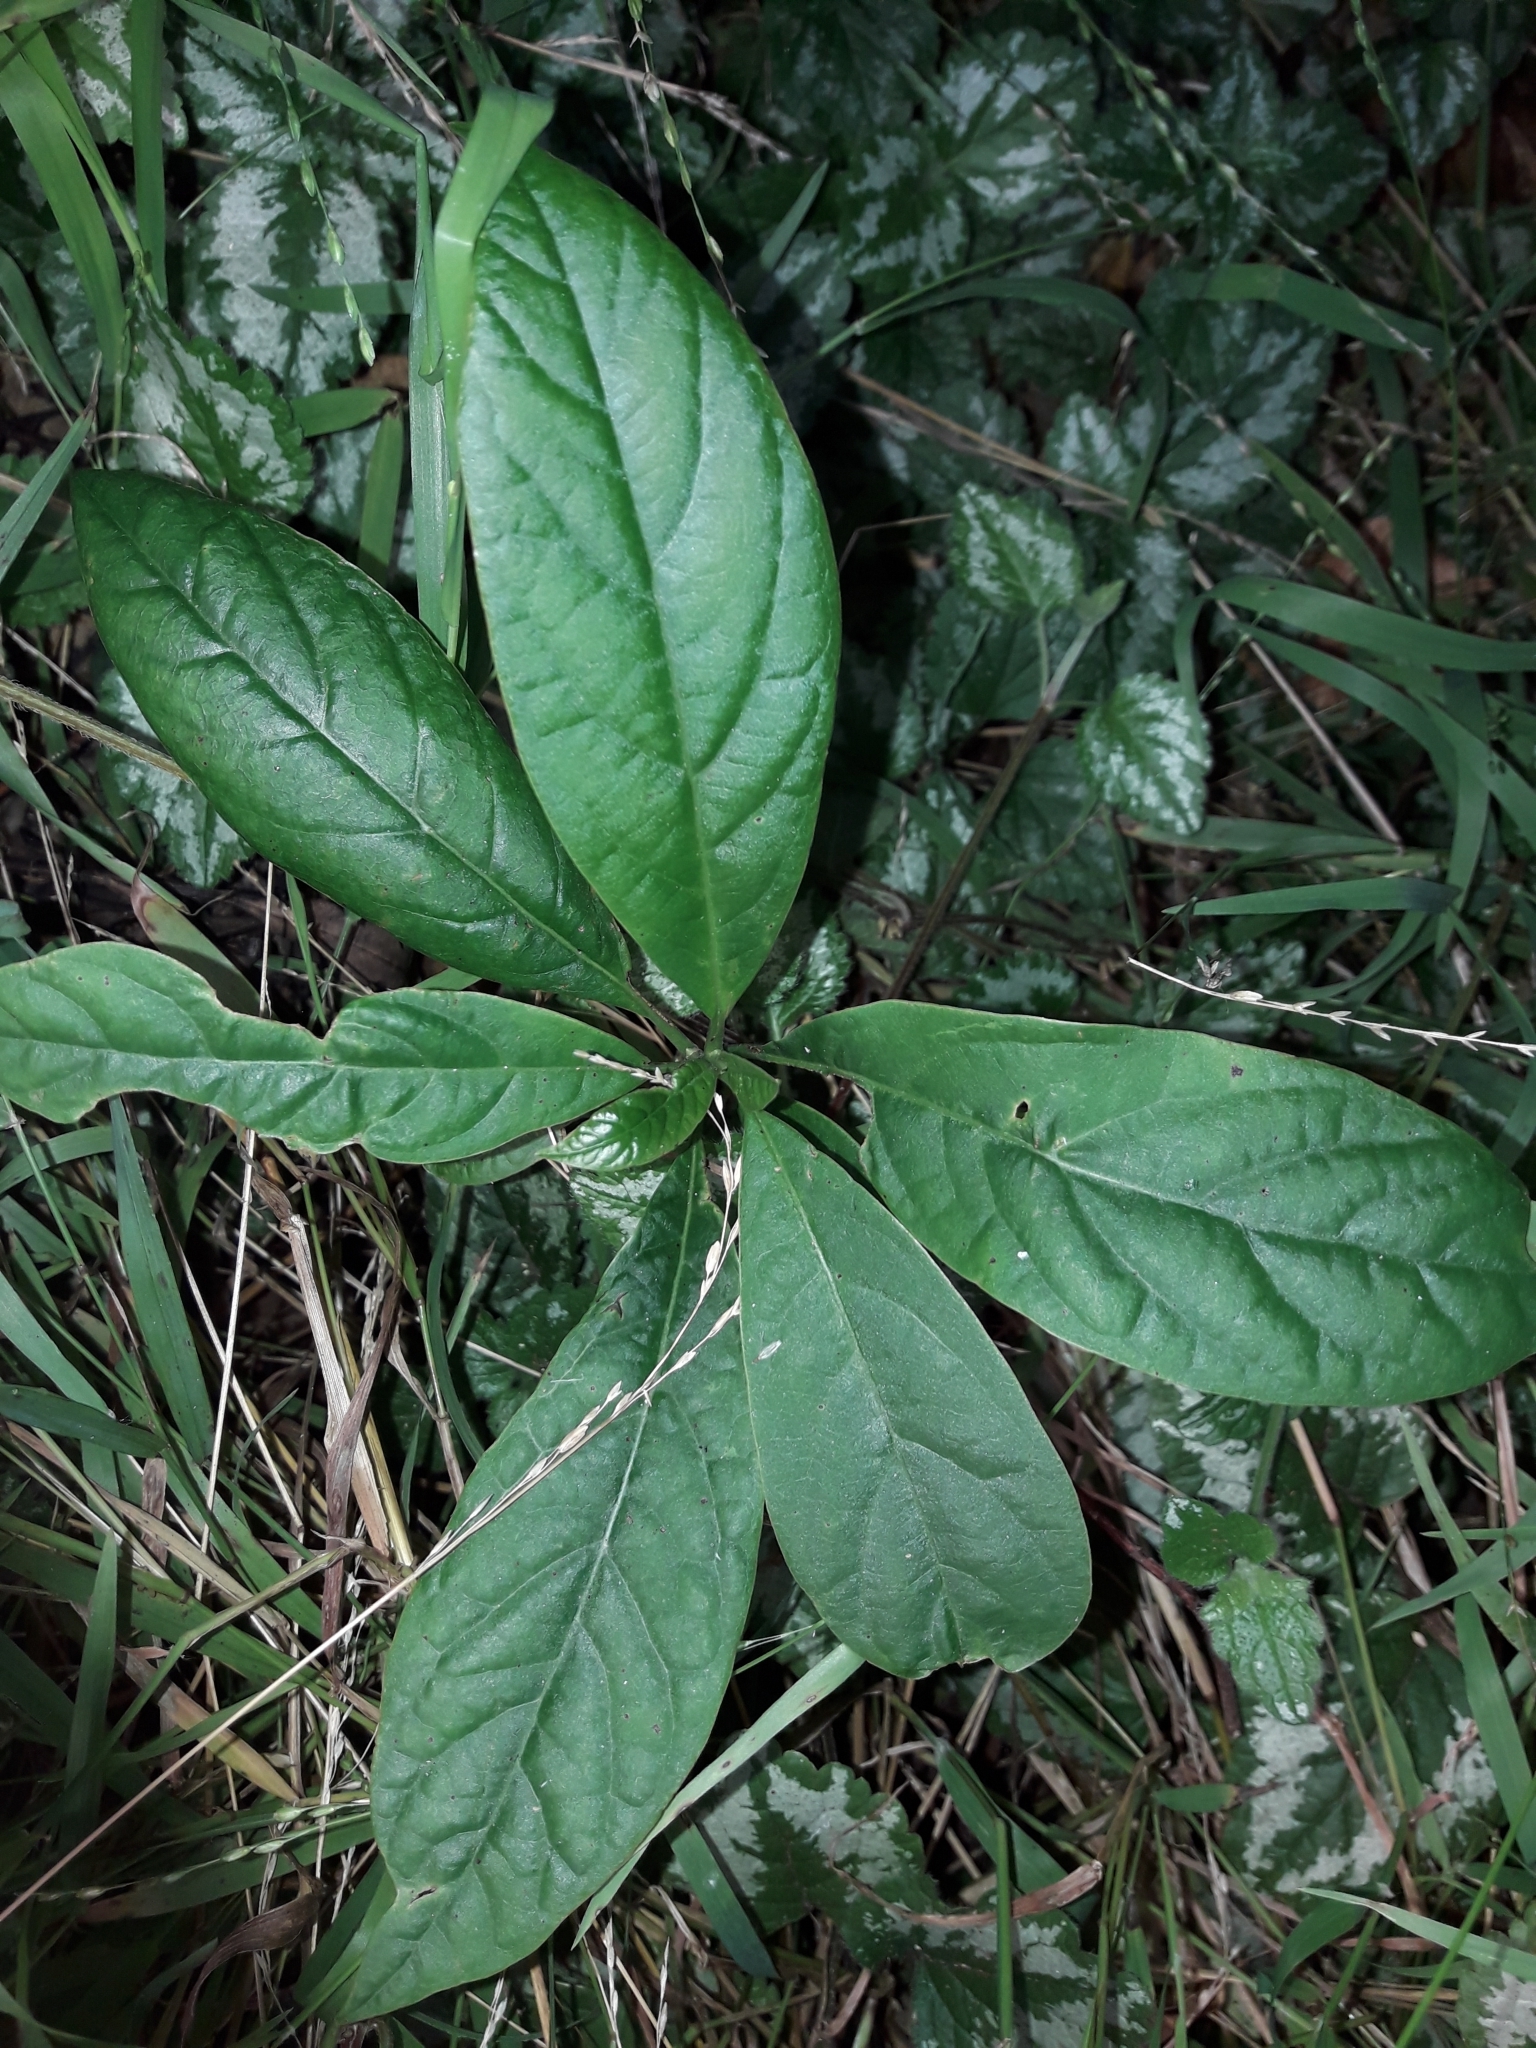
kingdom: Plantae
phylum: Tracheophyta
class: Magnoliopsida
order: Laurales
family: Lauraceae
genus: Persea
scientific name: Persea americana
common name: Avocado
